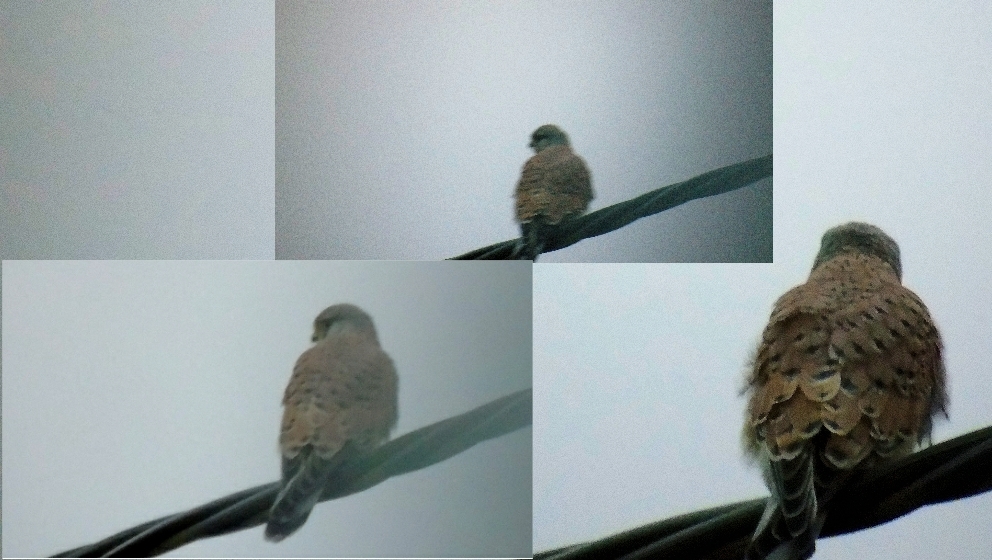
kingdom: Animalia
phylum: Chordata
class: Aves
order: Falconiformes
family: Falconidae
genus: Falco
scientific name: Falco tinnunculus
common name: Common kestrel
